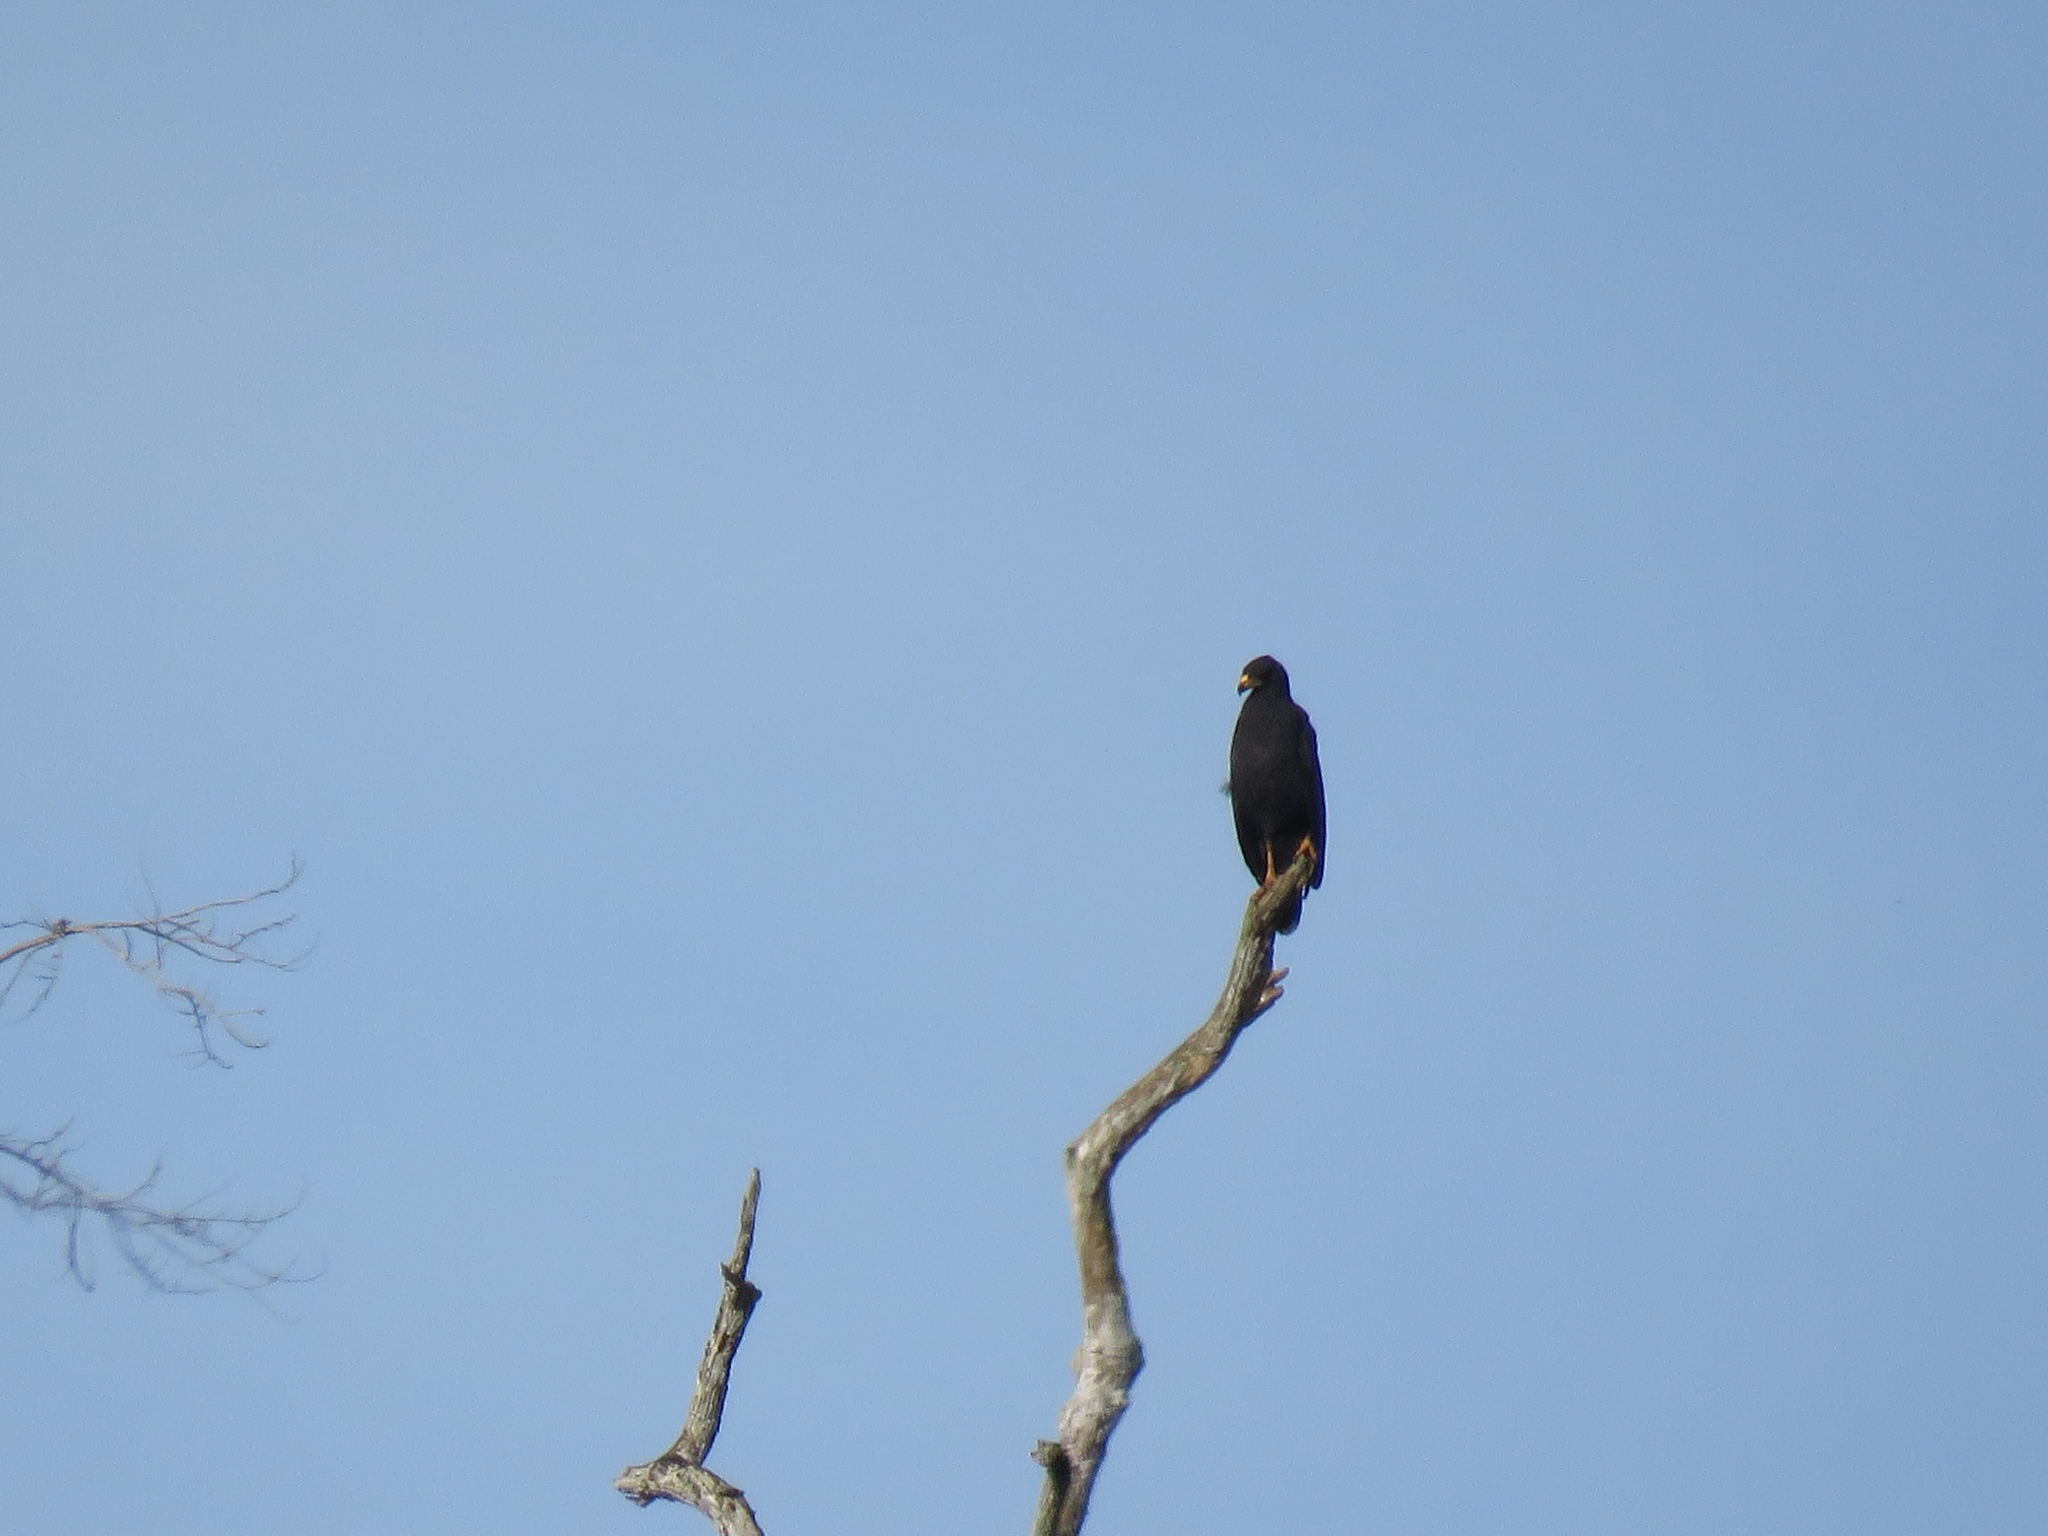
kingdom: Animalia
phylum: Chordata
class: Aves
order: Accipitriformes
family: Accipitridae
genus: Buteogallus
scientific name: Buteogallus anthracinus
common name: Common black hawk
